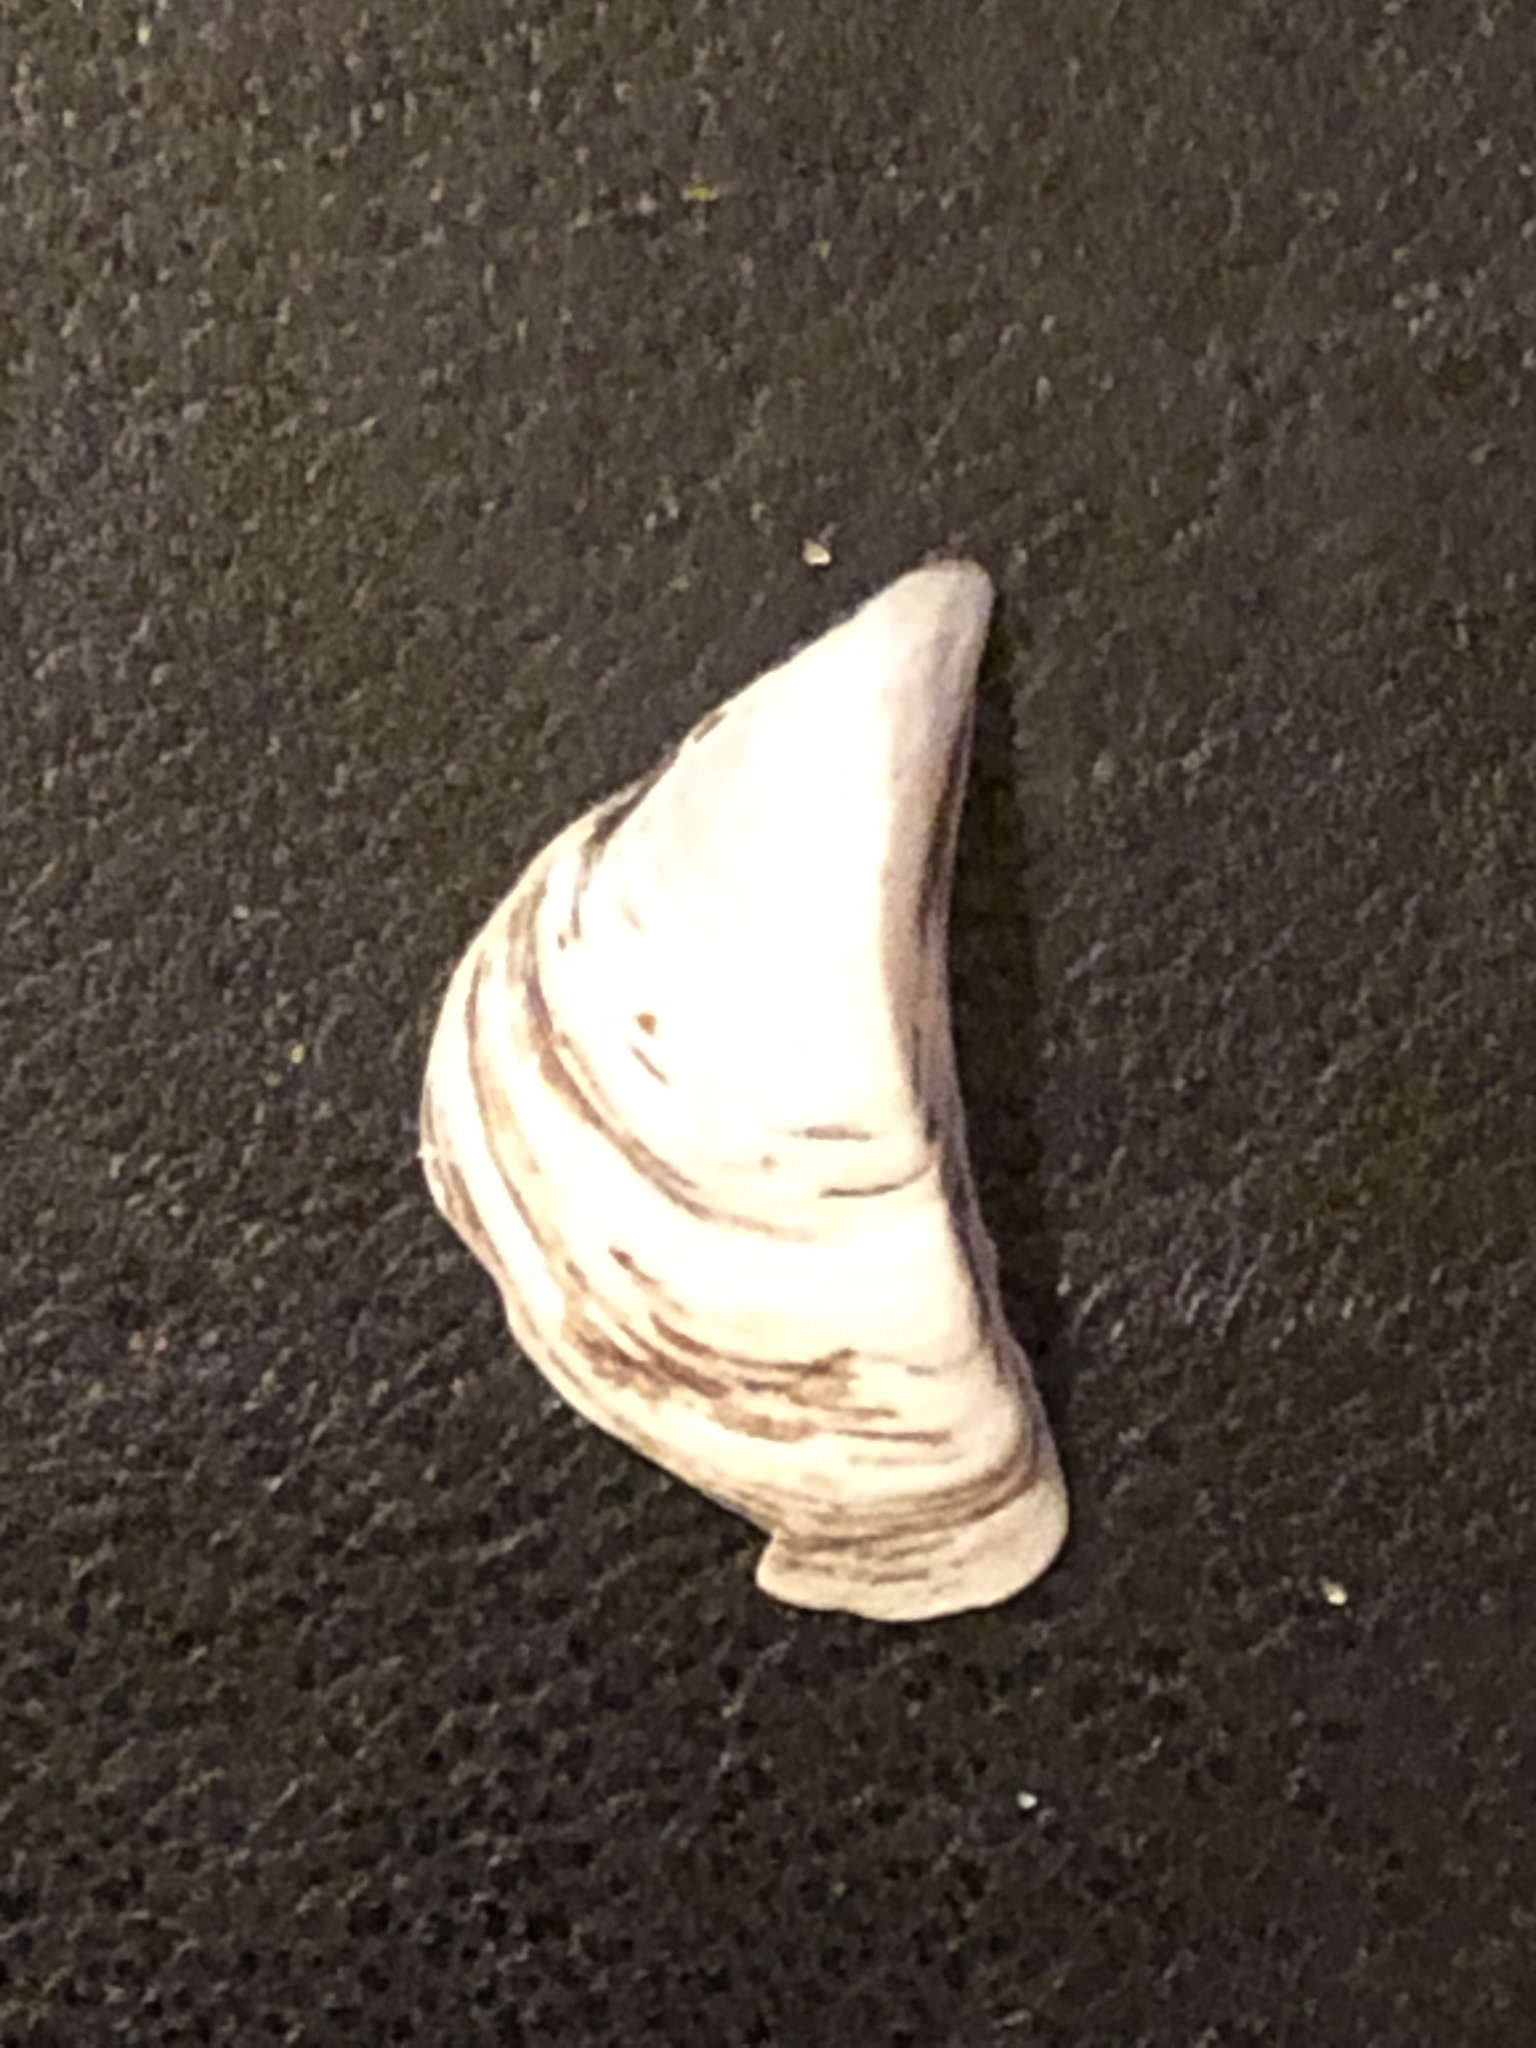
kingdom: Animalia
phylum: Mollusca
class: Bivalvia
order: Myida
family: Dreissenidae
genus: Dreissena
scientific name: Dreissena polymorpha
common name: Zebra mussel
